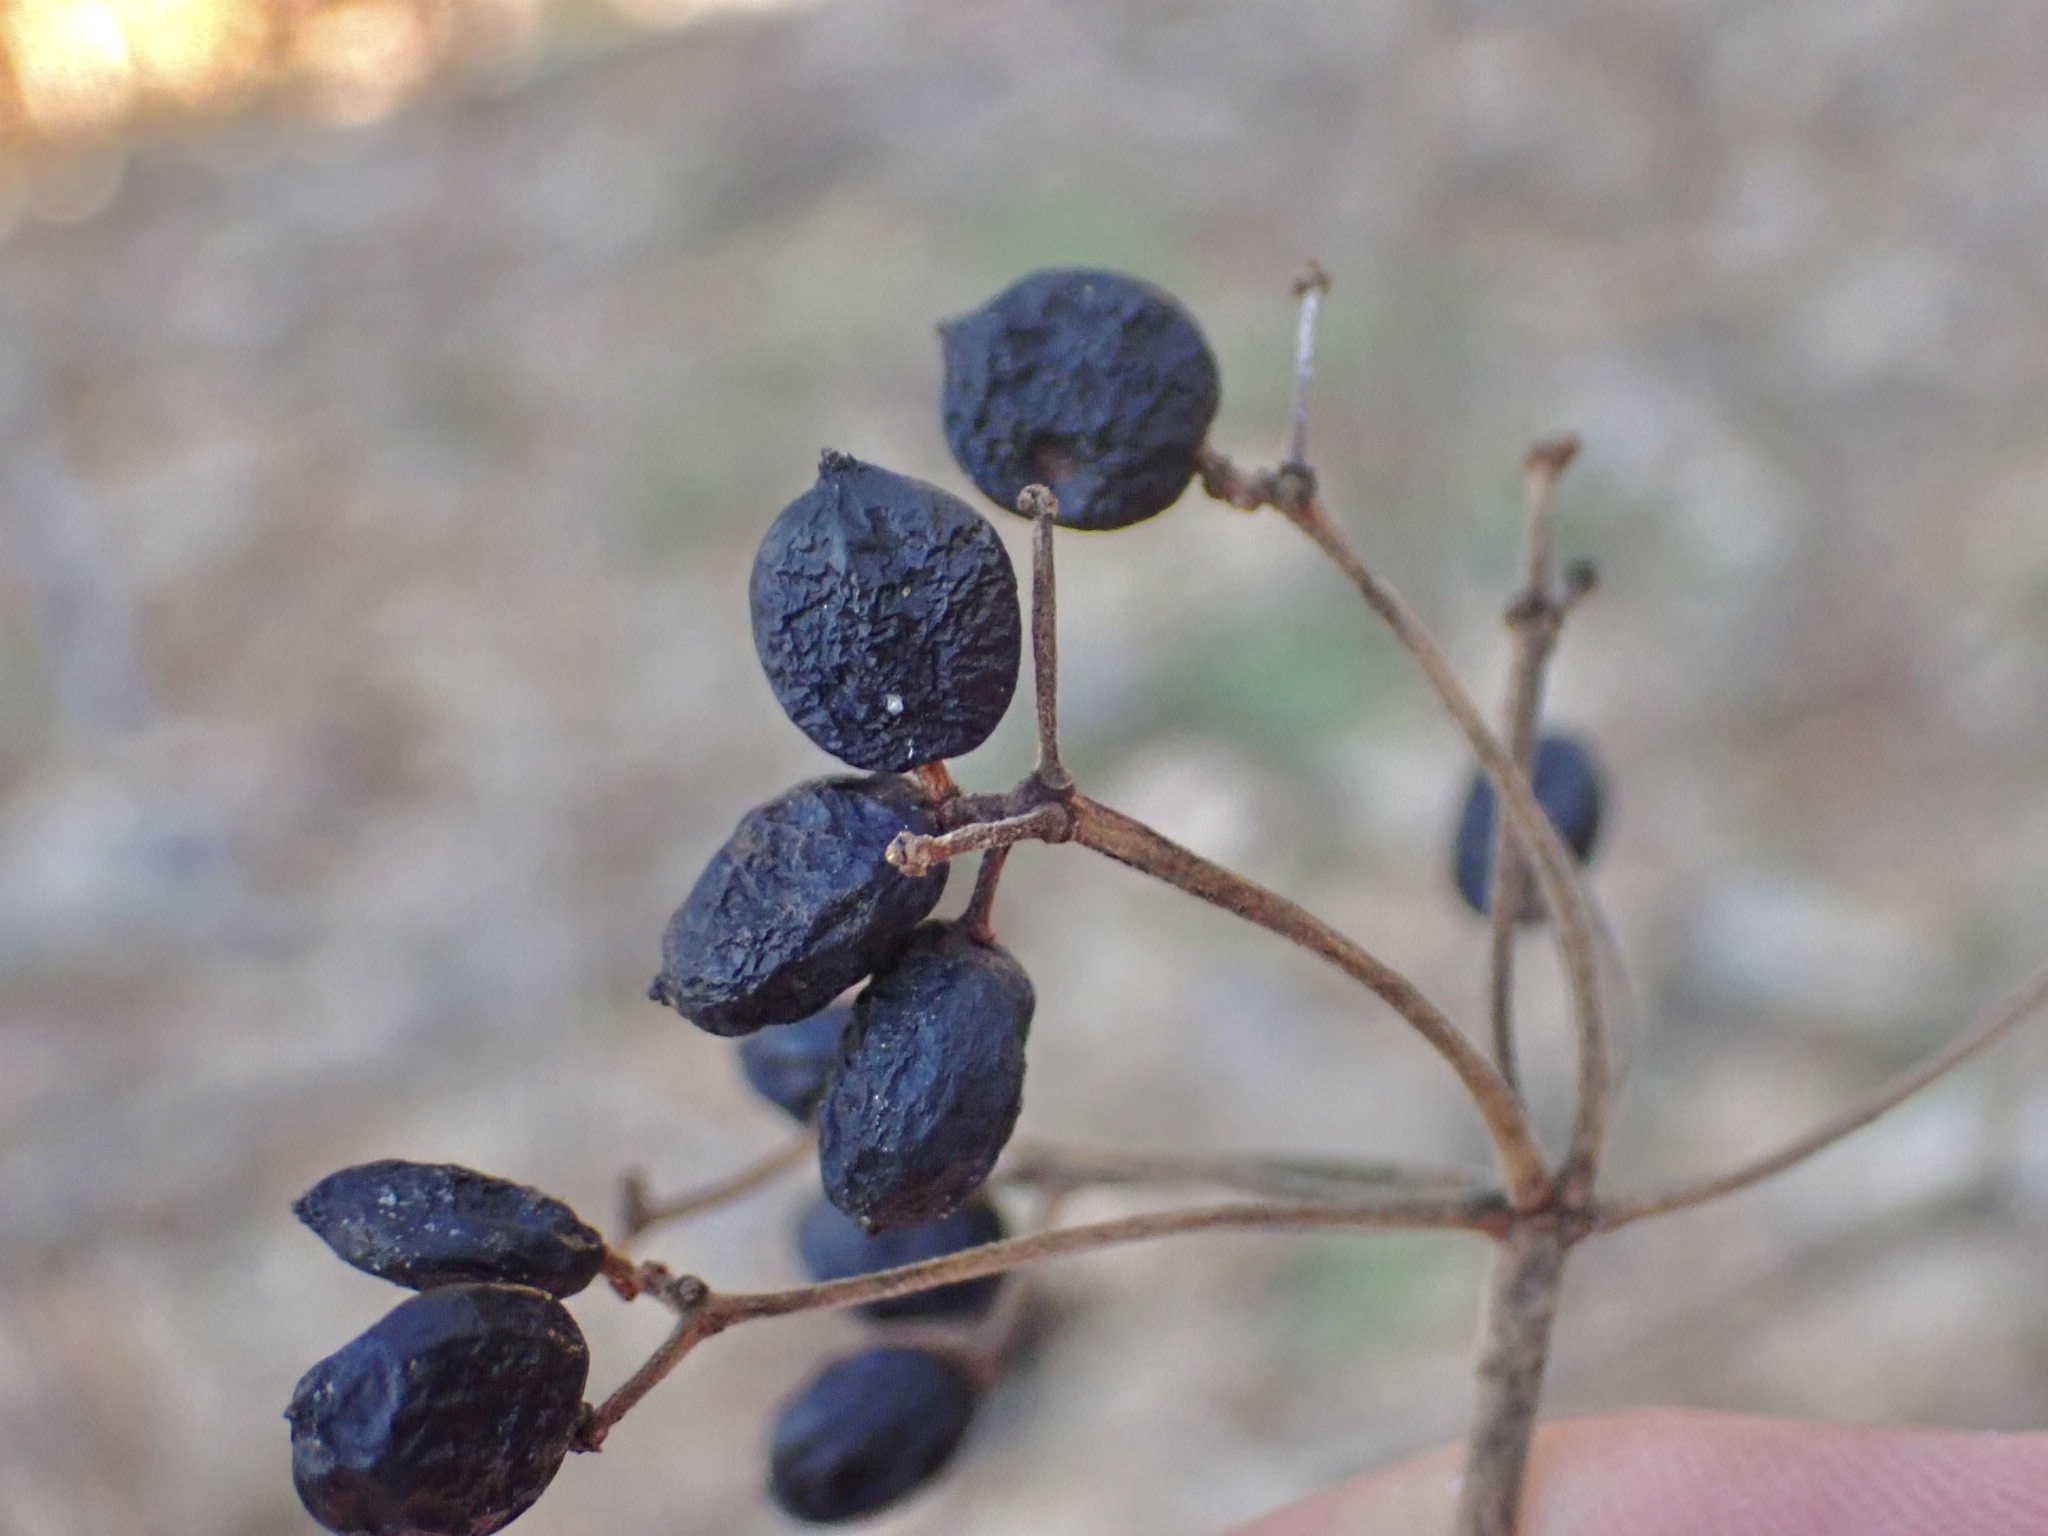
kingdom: Plantae
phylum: Tracheophyta
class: Magnoliopsida
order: Dipsacales
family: Viburnaceae
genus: Viburnum
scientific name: Viburnum acerifolium
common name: Dockmackie
